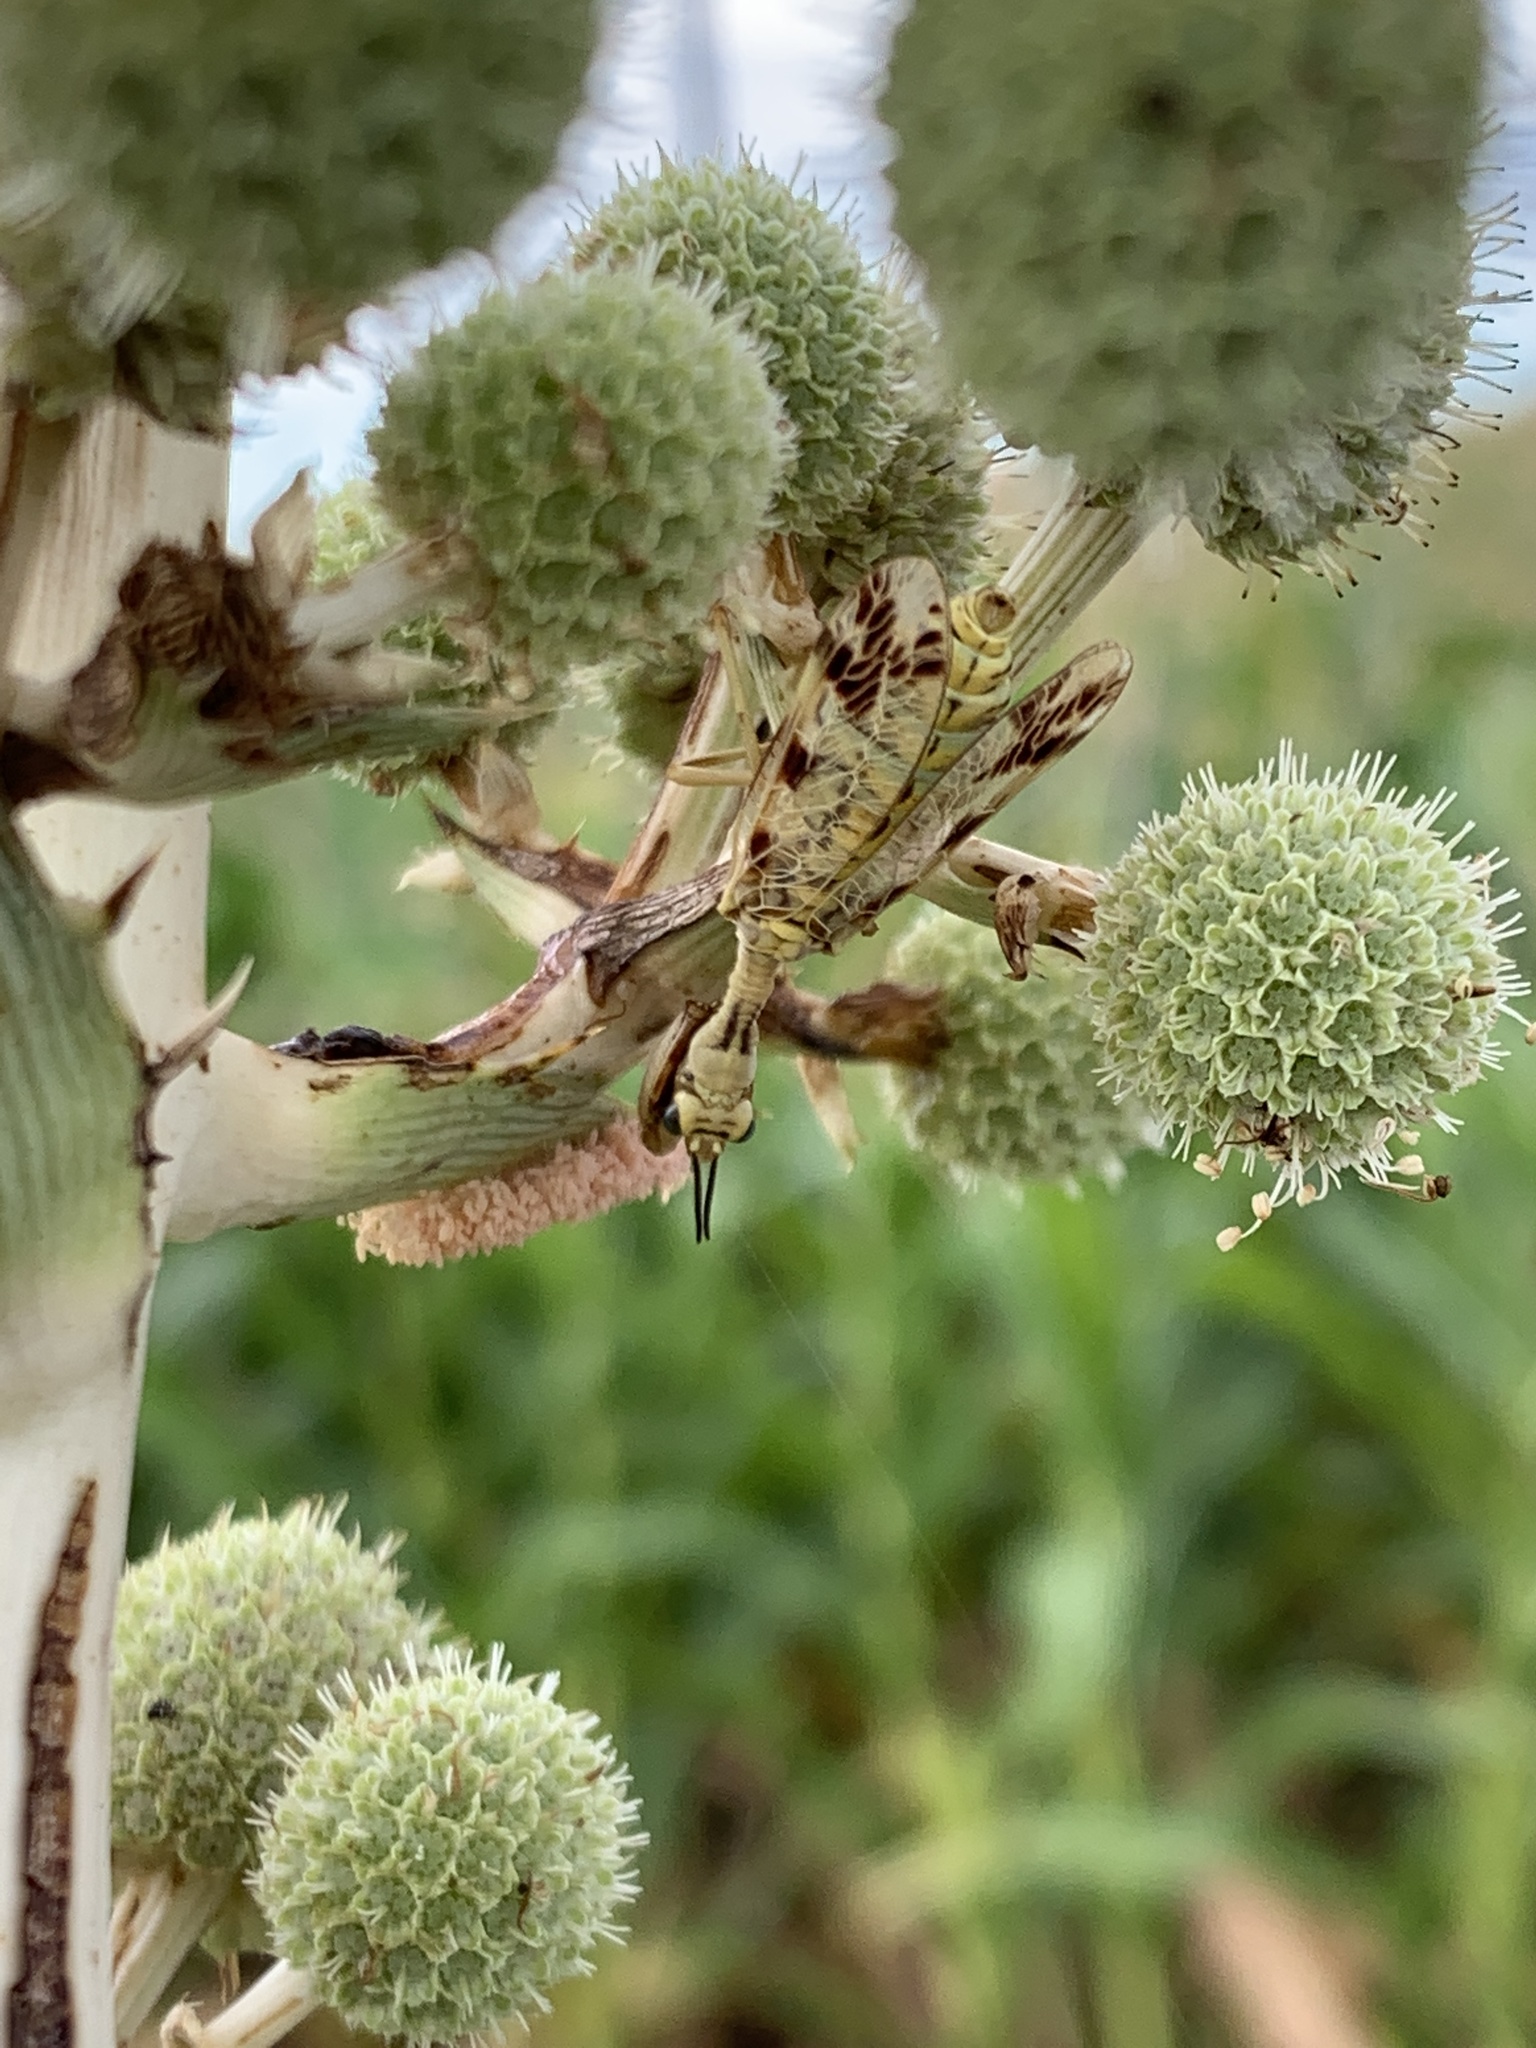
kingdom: Animalia
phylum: Arthropoda
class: Insecta
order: Neuroptera
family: Mantispidae
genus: Paramantispa
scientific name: Paramantispa ambusta
